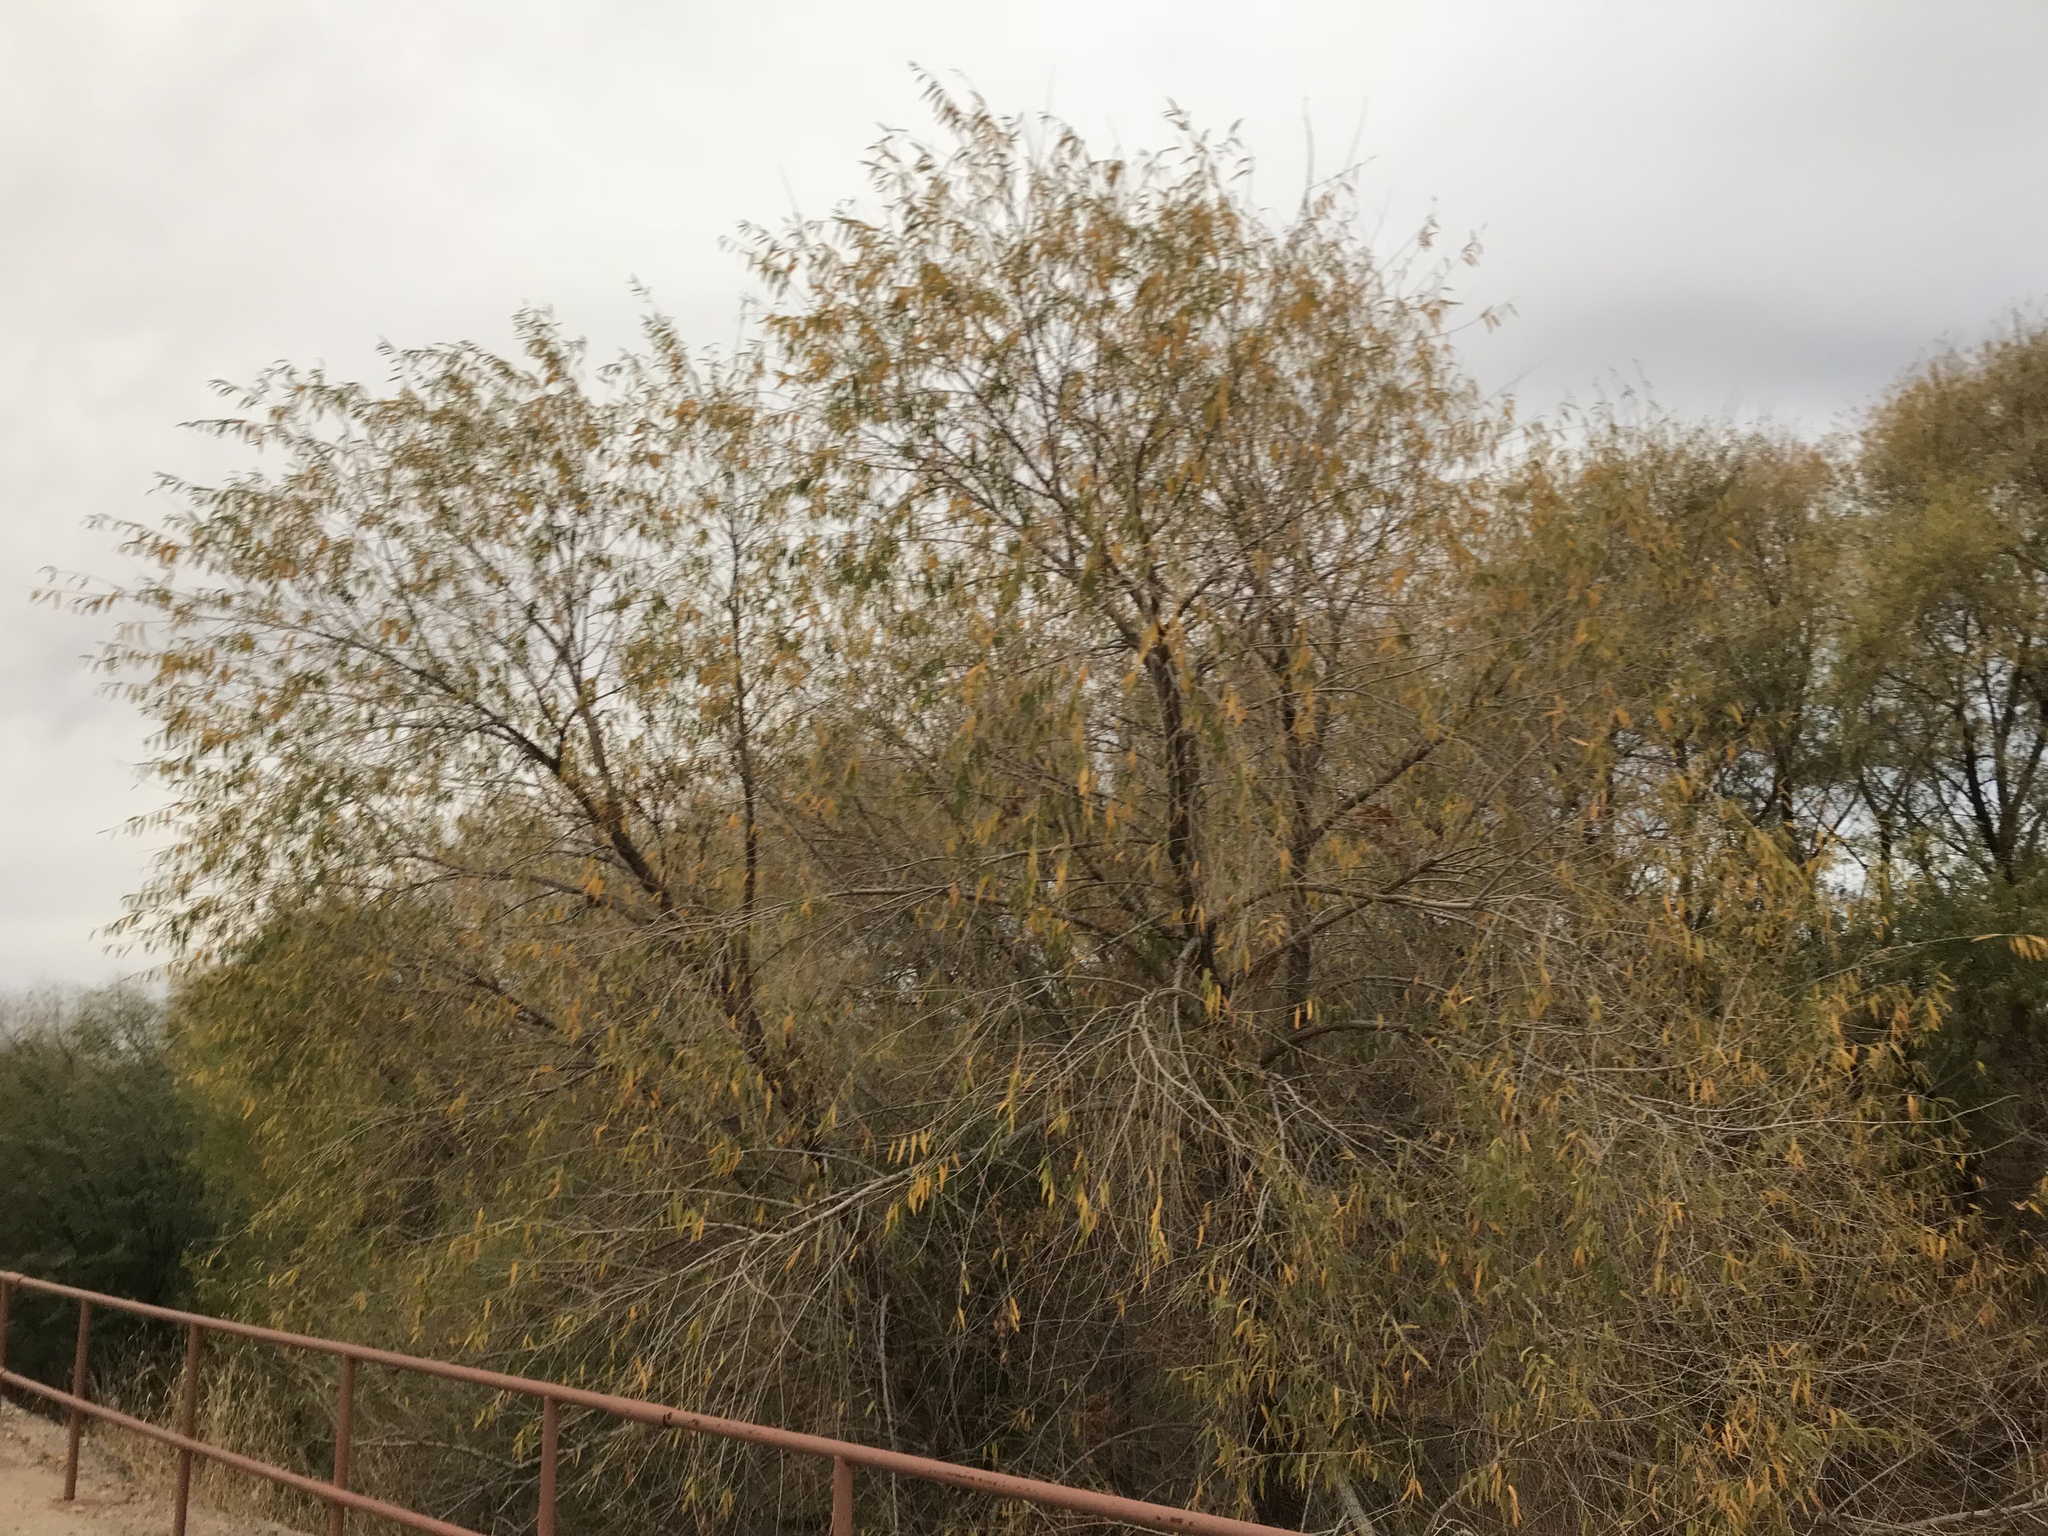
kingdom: Plantae
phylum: Tracheophyta
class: Magnoliopsida
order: Malpighiales
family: Salicaceae
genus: Salix
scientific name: Salix gooddingii
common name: Goodding's willow
